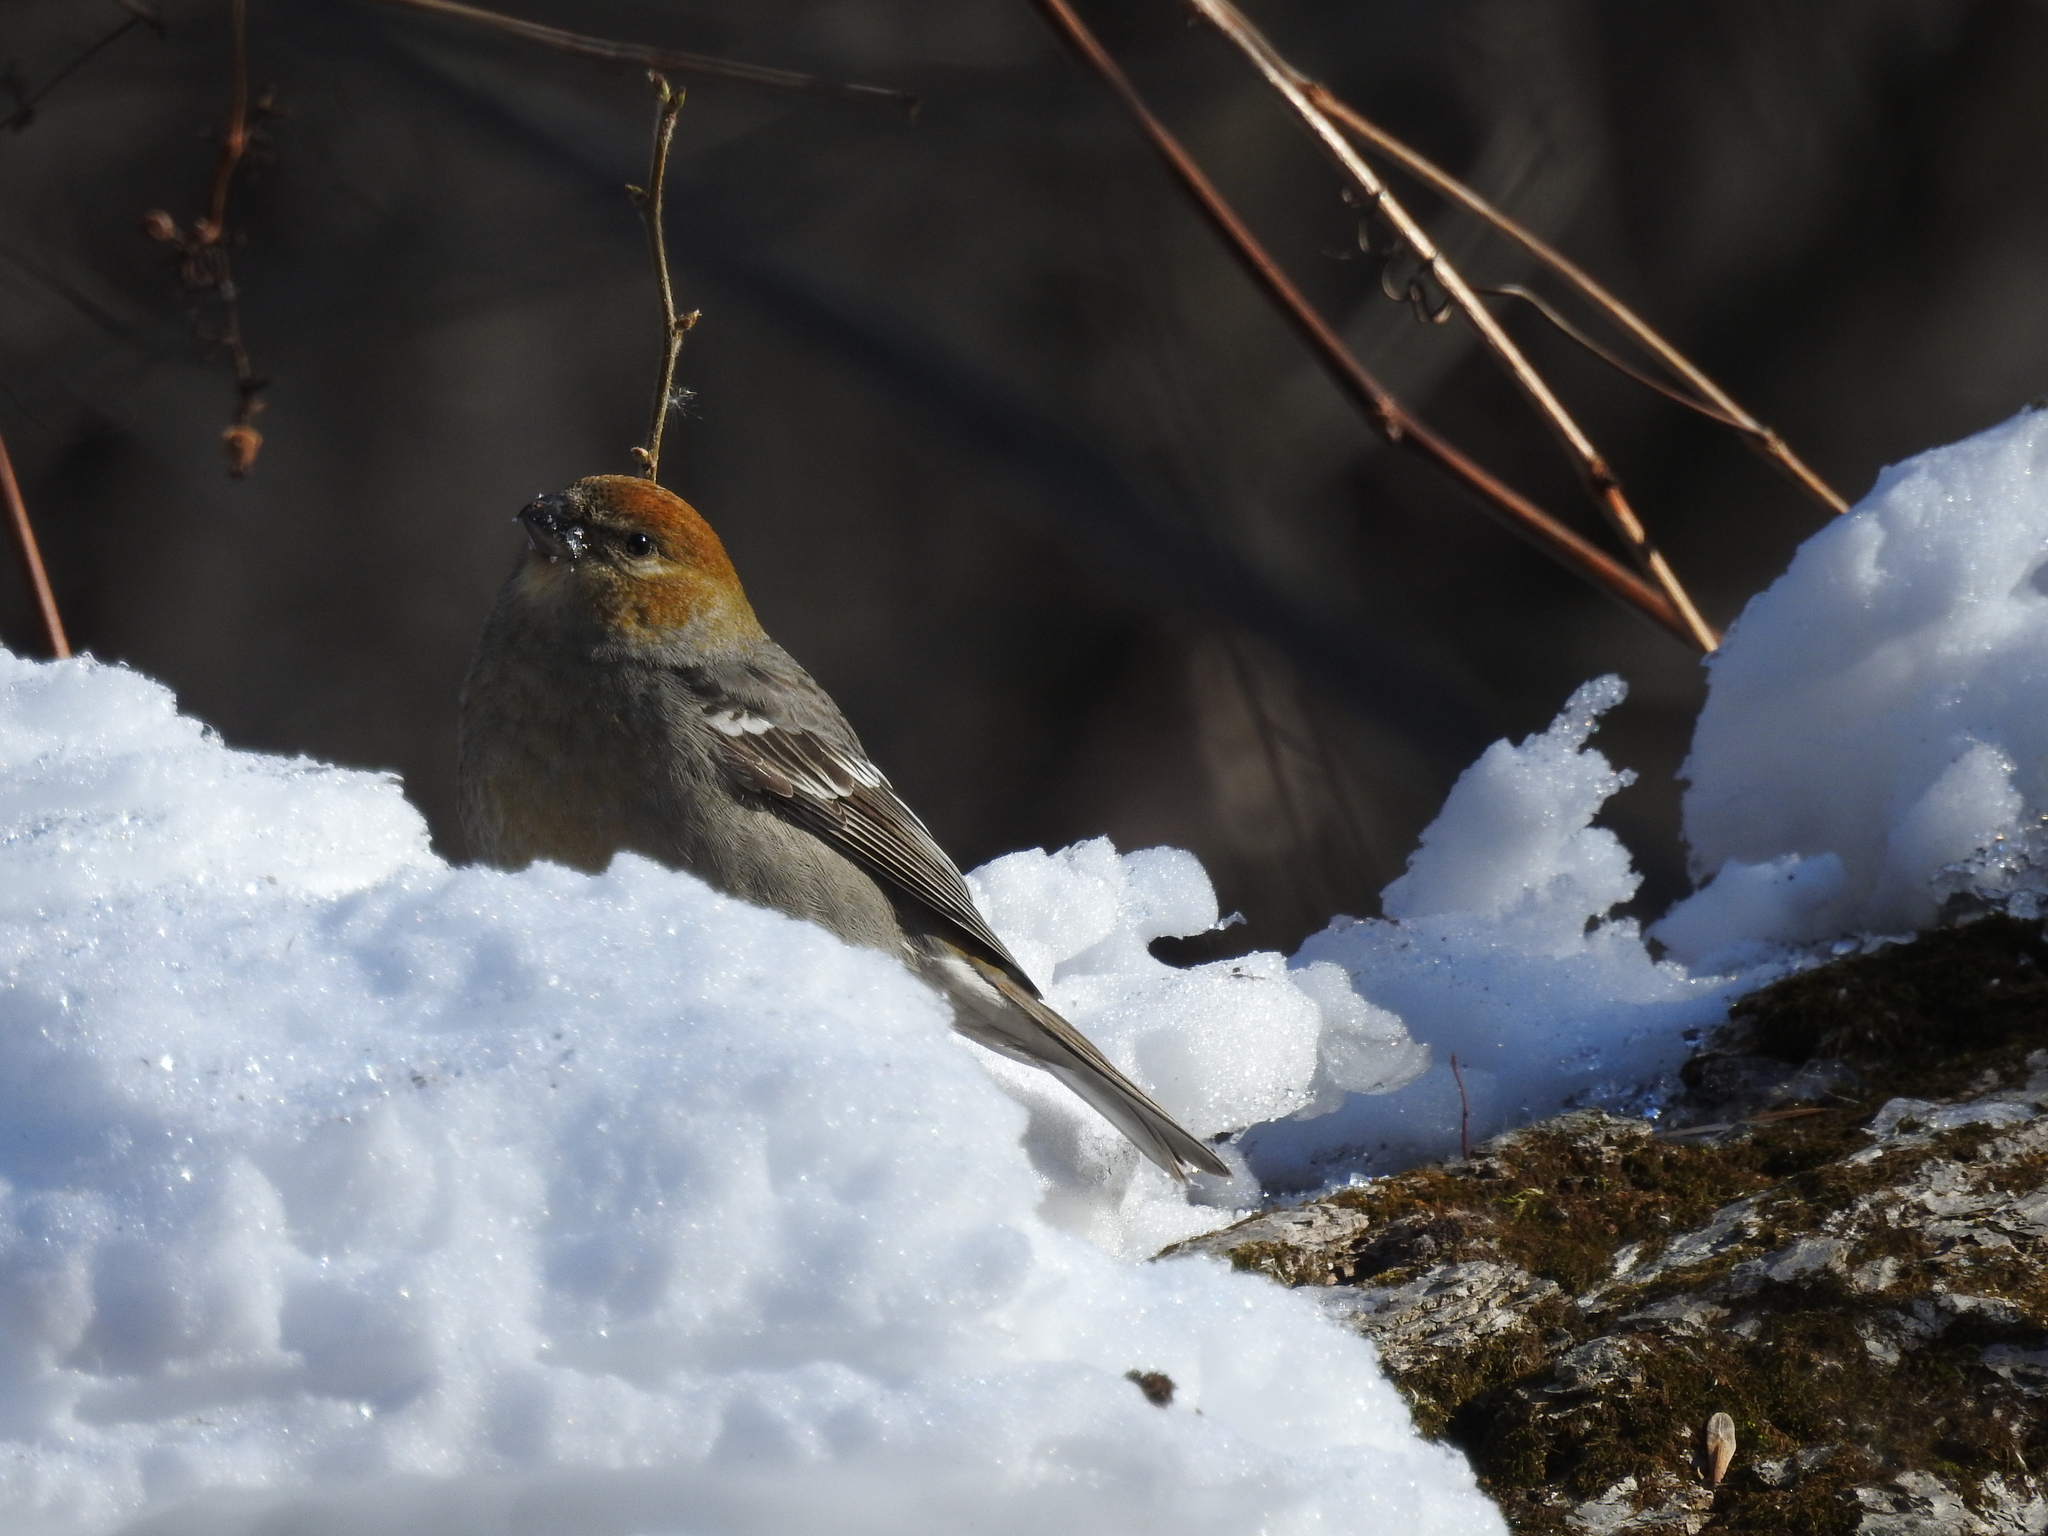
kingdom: Animalia
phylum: Chordata
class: Aves
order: Passeriformes
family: Fringillidae
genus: Pinicola
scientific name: Pinicola enucleator
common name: Pine grosbeak
